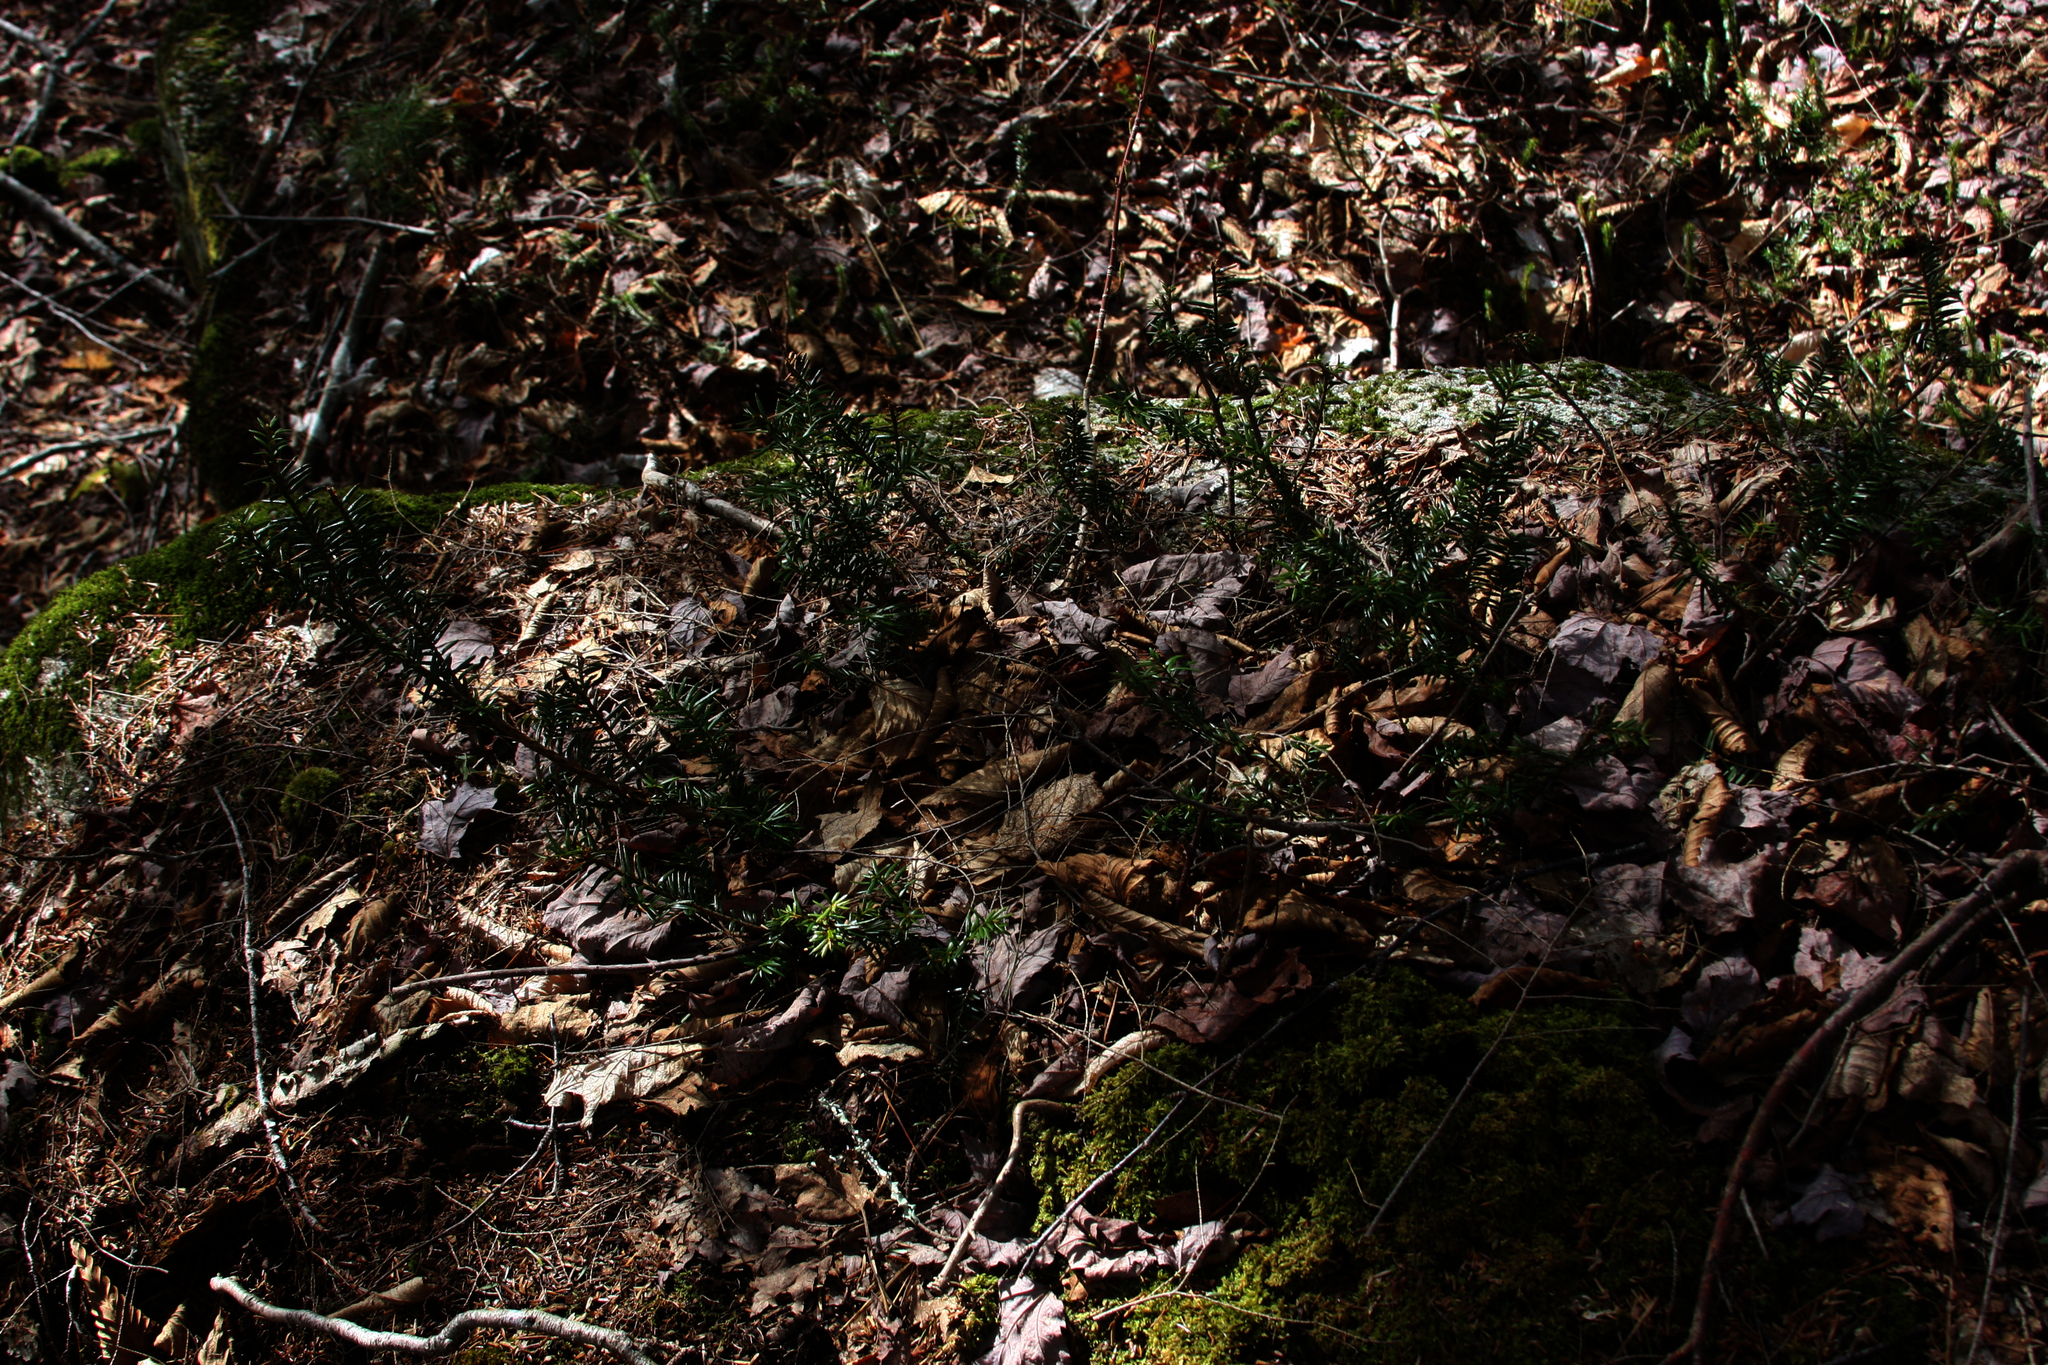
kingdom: Plantae
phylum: Tracheophyta
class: Pinopsida
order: Pinales
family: Taxaceae
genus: Taxus
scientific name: Taxus canadensis
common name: American yew
